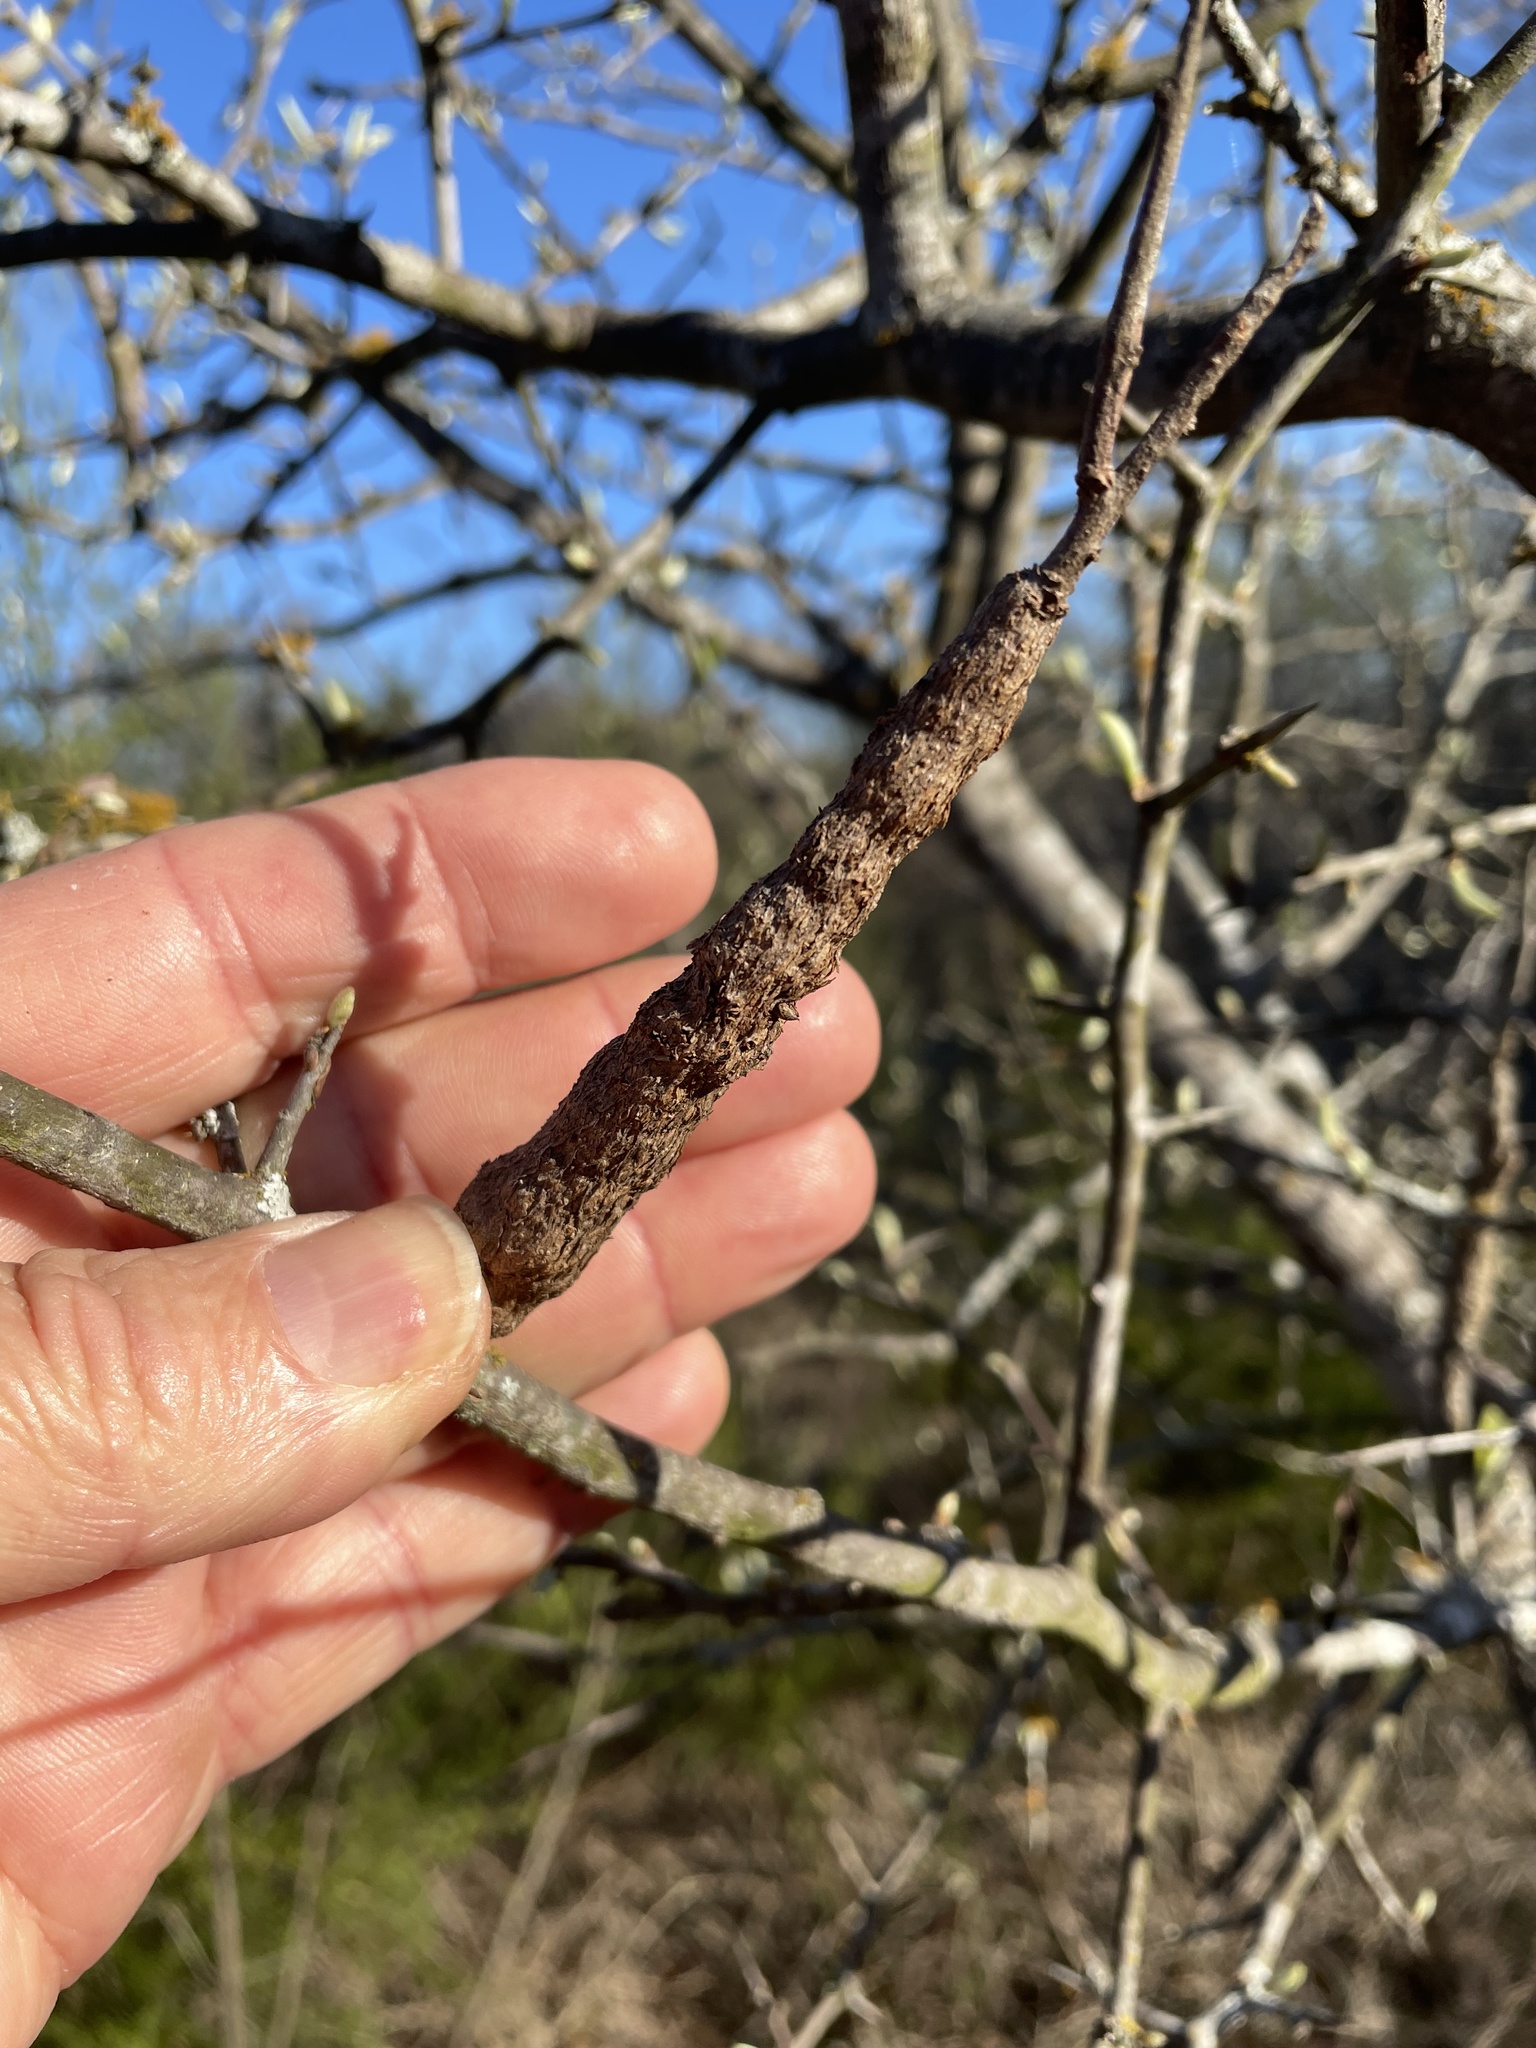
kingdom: Animalia
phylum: Arthropoda
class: Insecta
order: Diptera
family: Cecidomyiidae
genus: Bruggmanniella
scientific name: Bruggmanniella bumeliae
